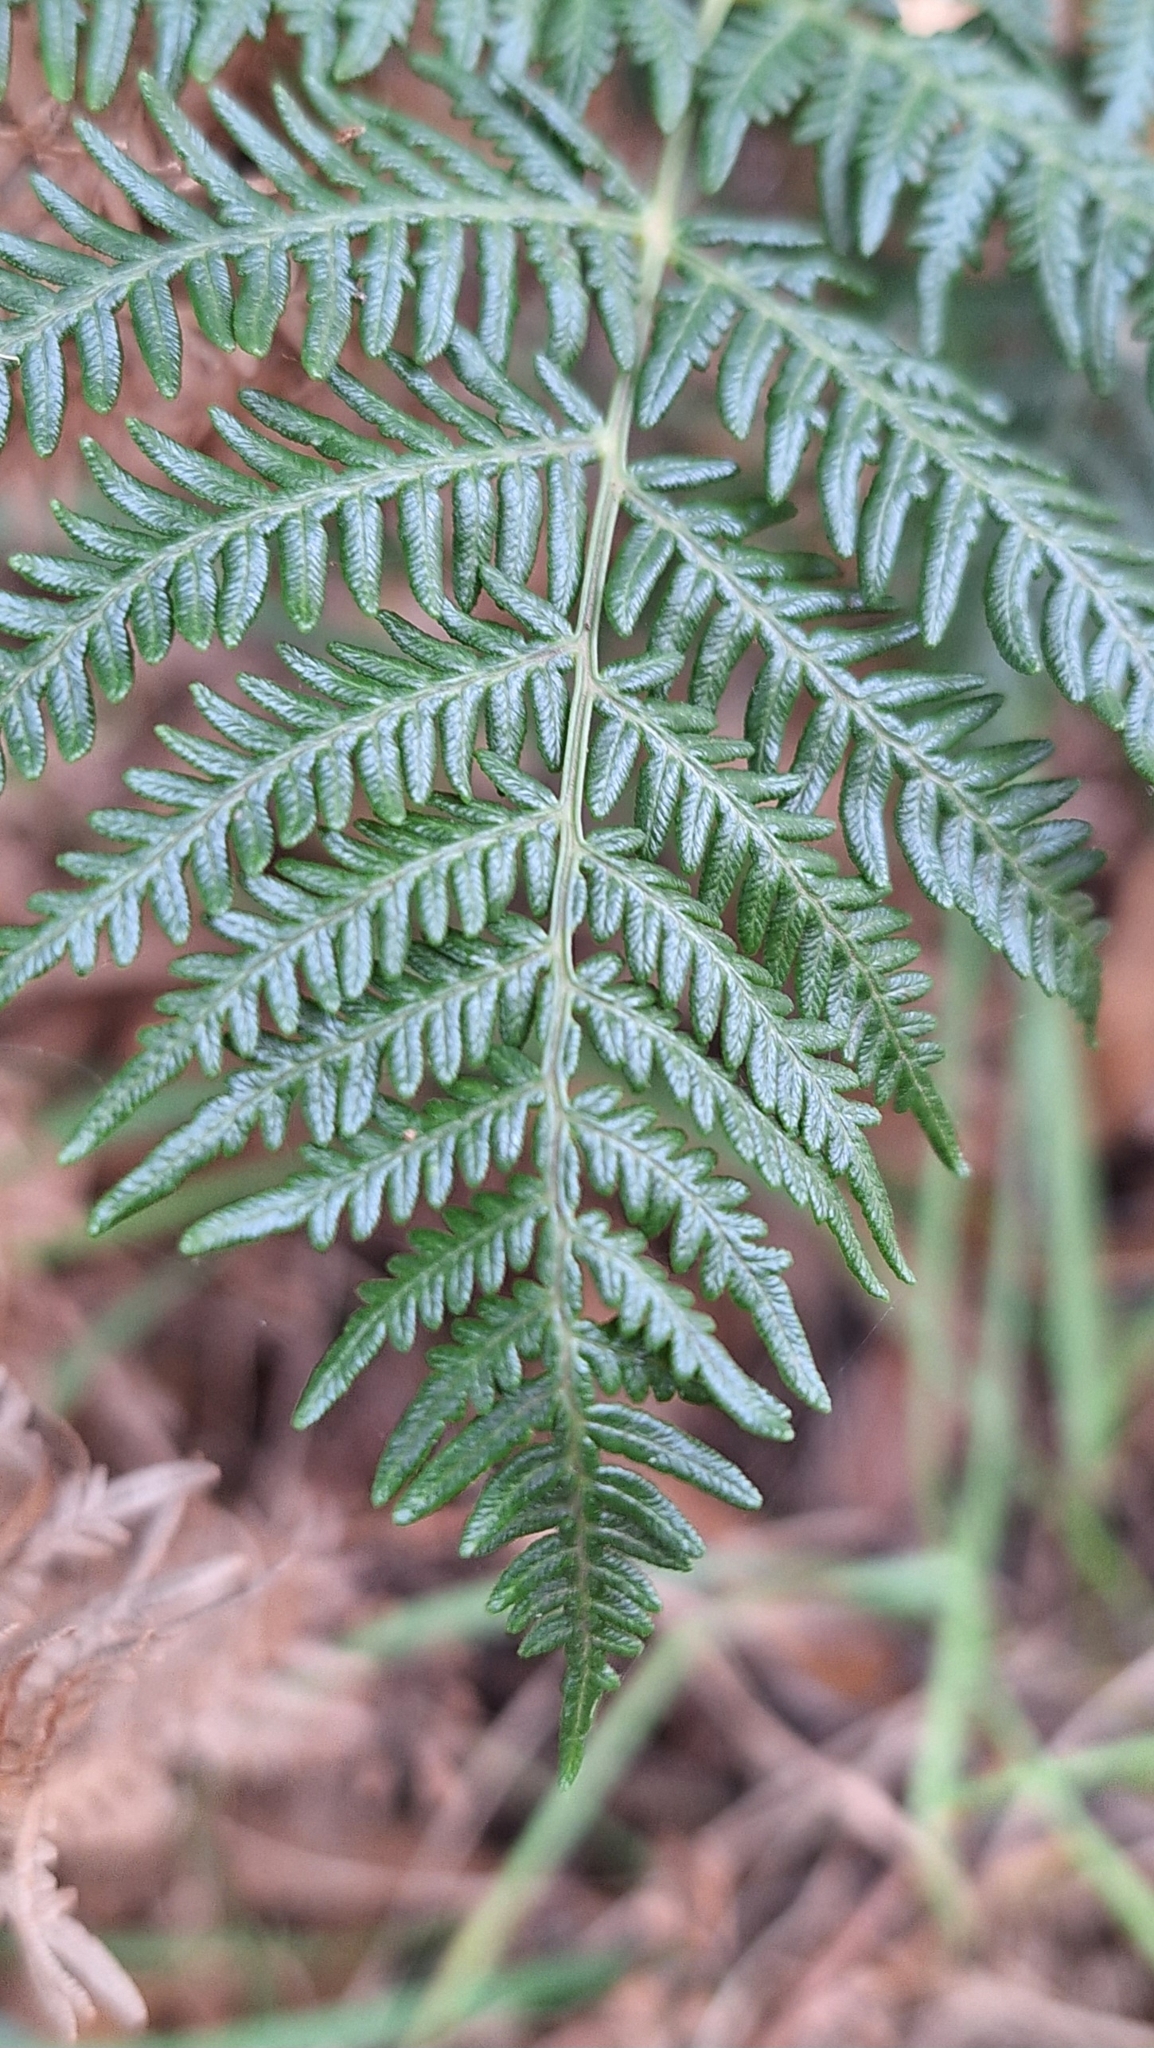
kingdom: Plantae
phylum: Tracheophyta
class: Polypodiopsida
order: Polypodiales
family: Dennstaedtiaceae
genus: Pteridium
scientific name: Pteridium esculentum
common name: Bracken fern
